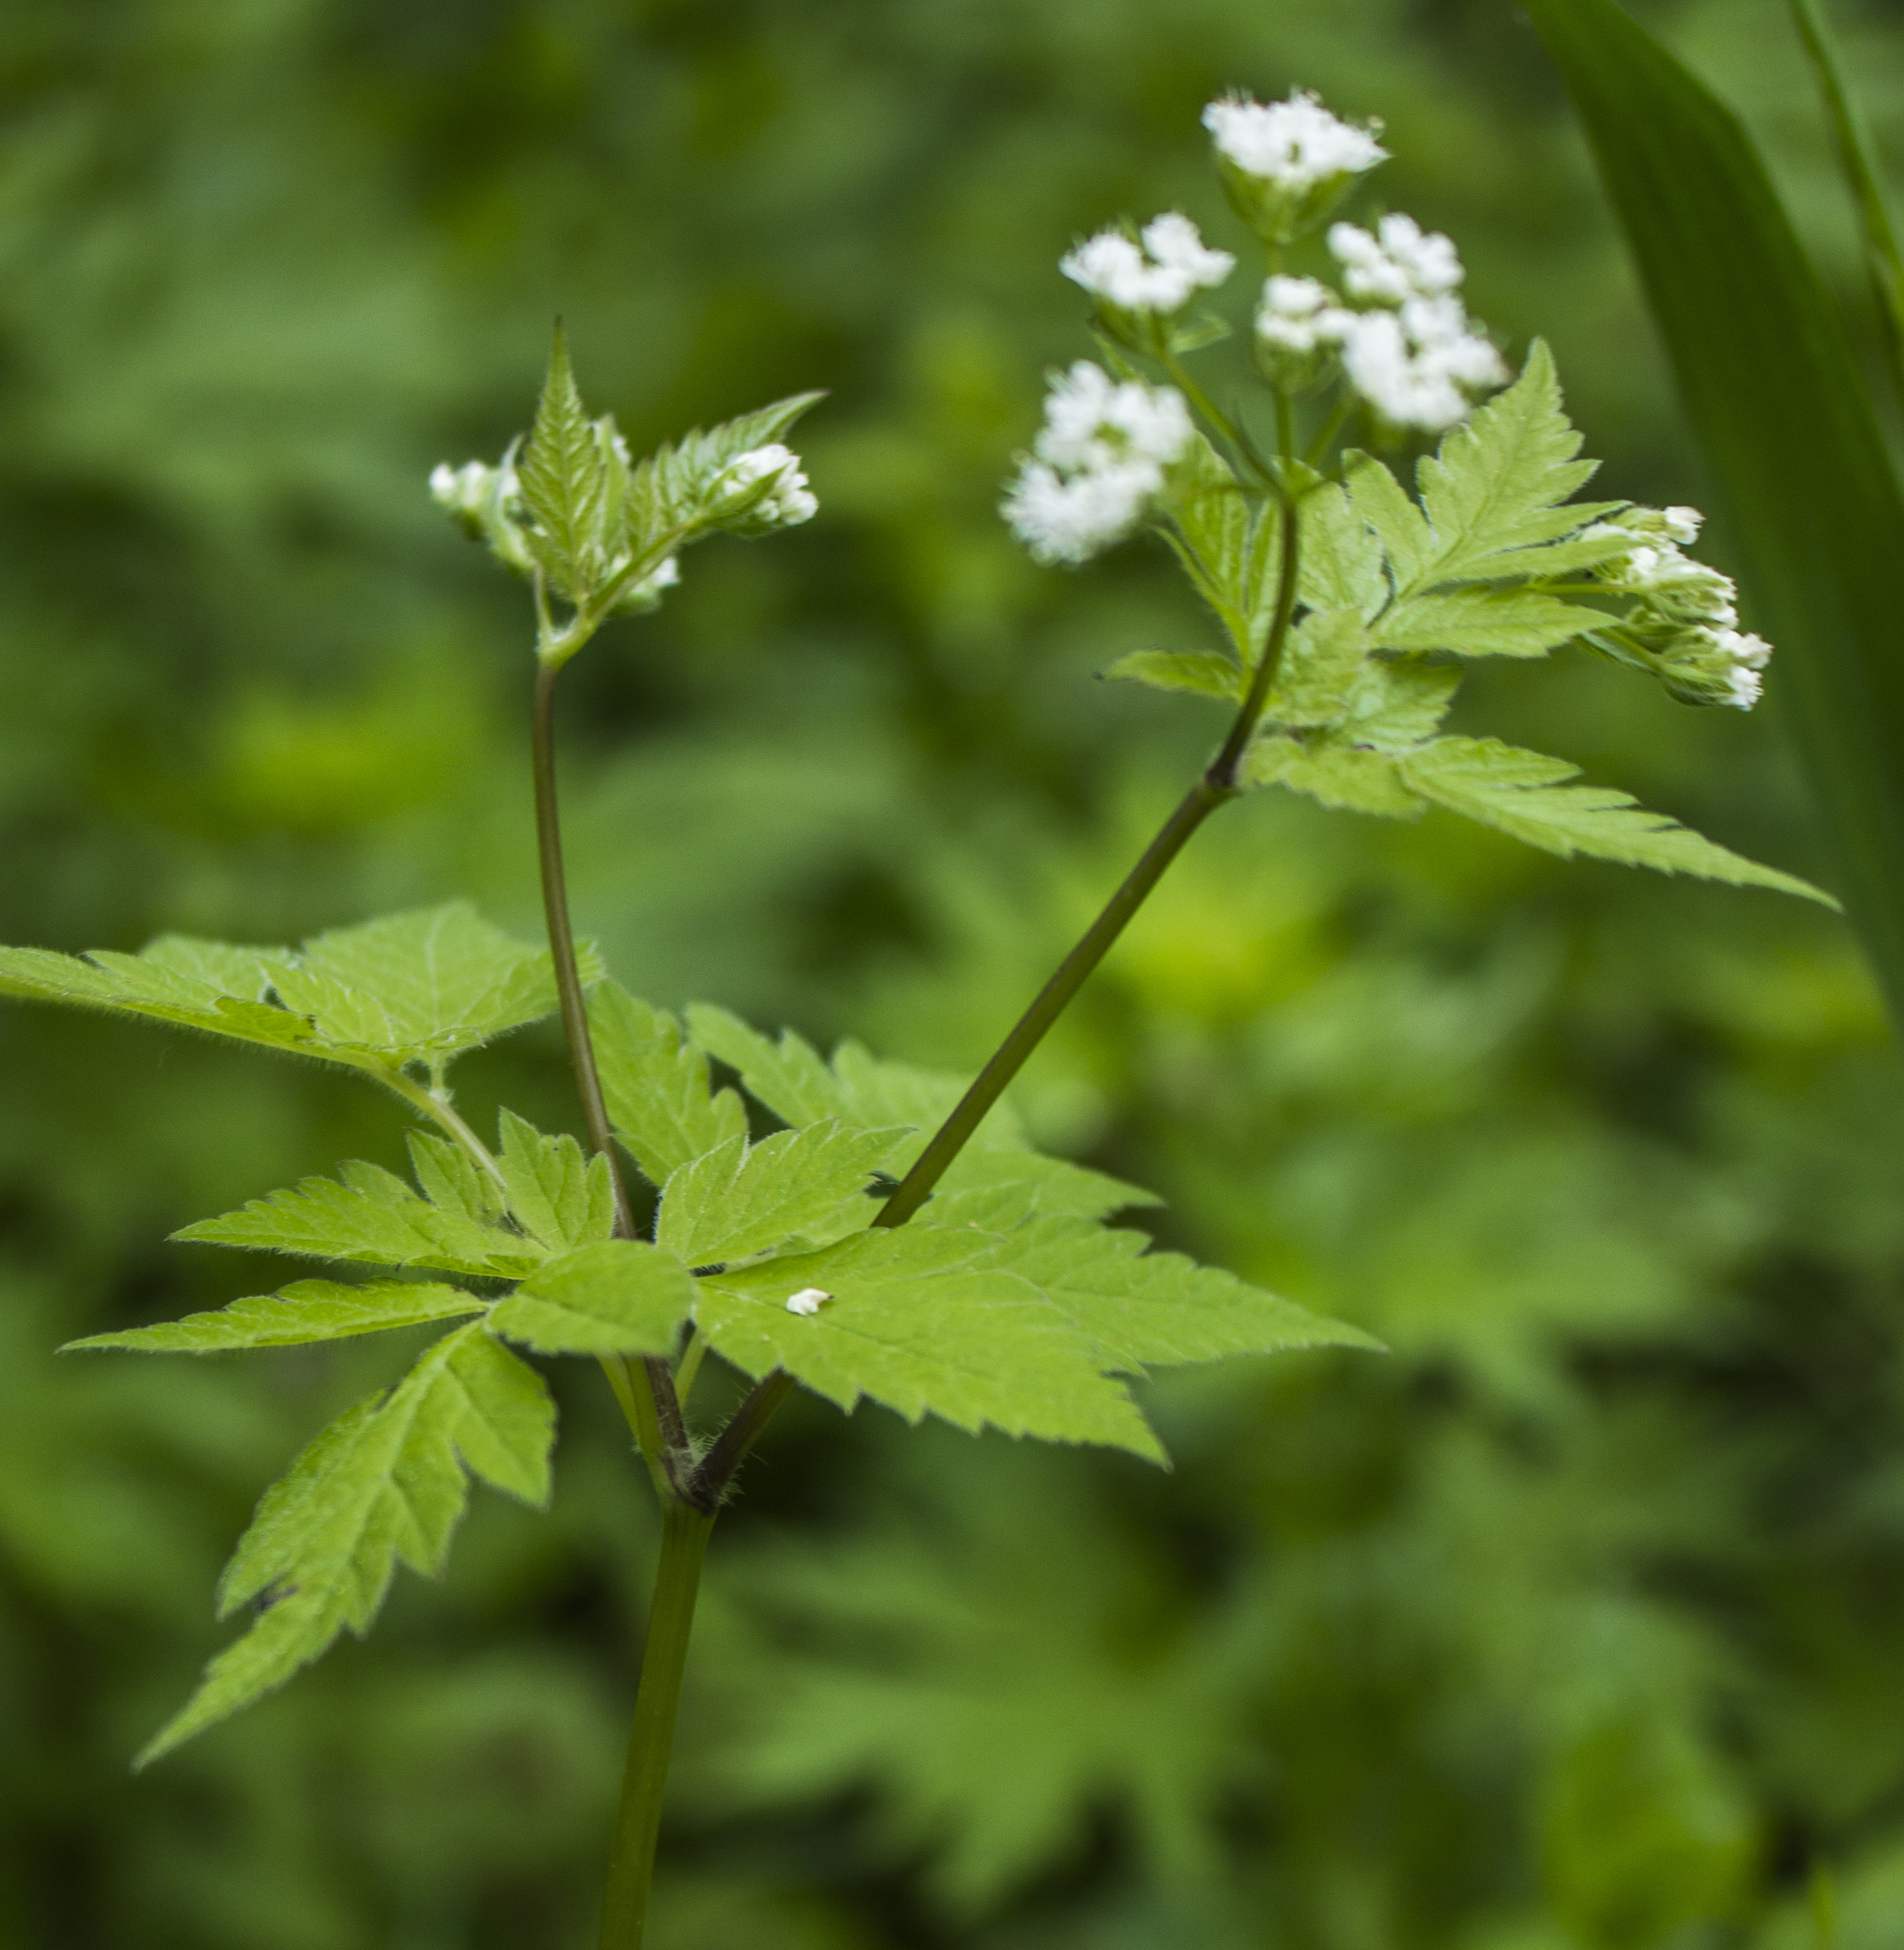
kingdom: Plantae
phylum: Tracheophyta
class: Magnoliopsida
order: Apiales
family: Apiaceae
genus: Osmorhiza
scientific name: Osmorhiza longistylis
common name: Smooth sweet cicely
